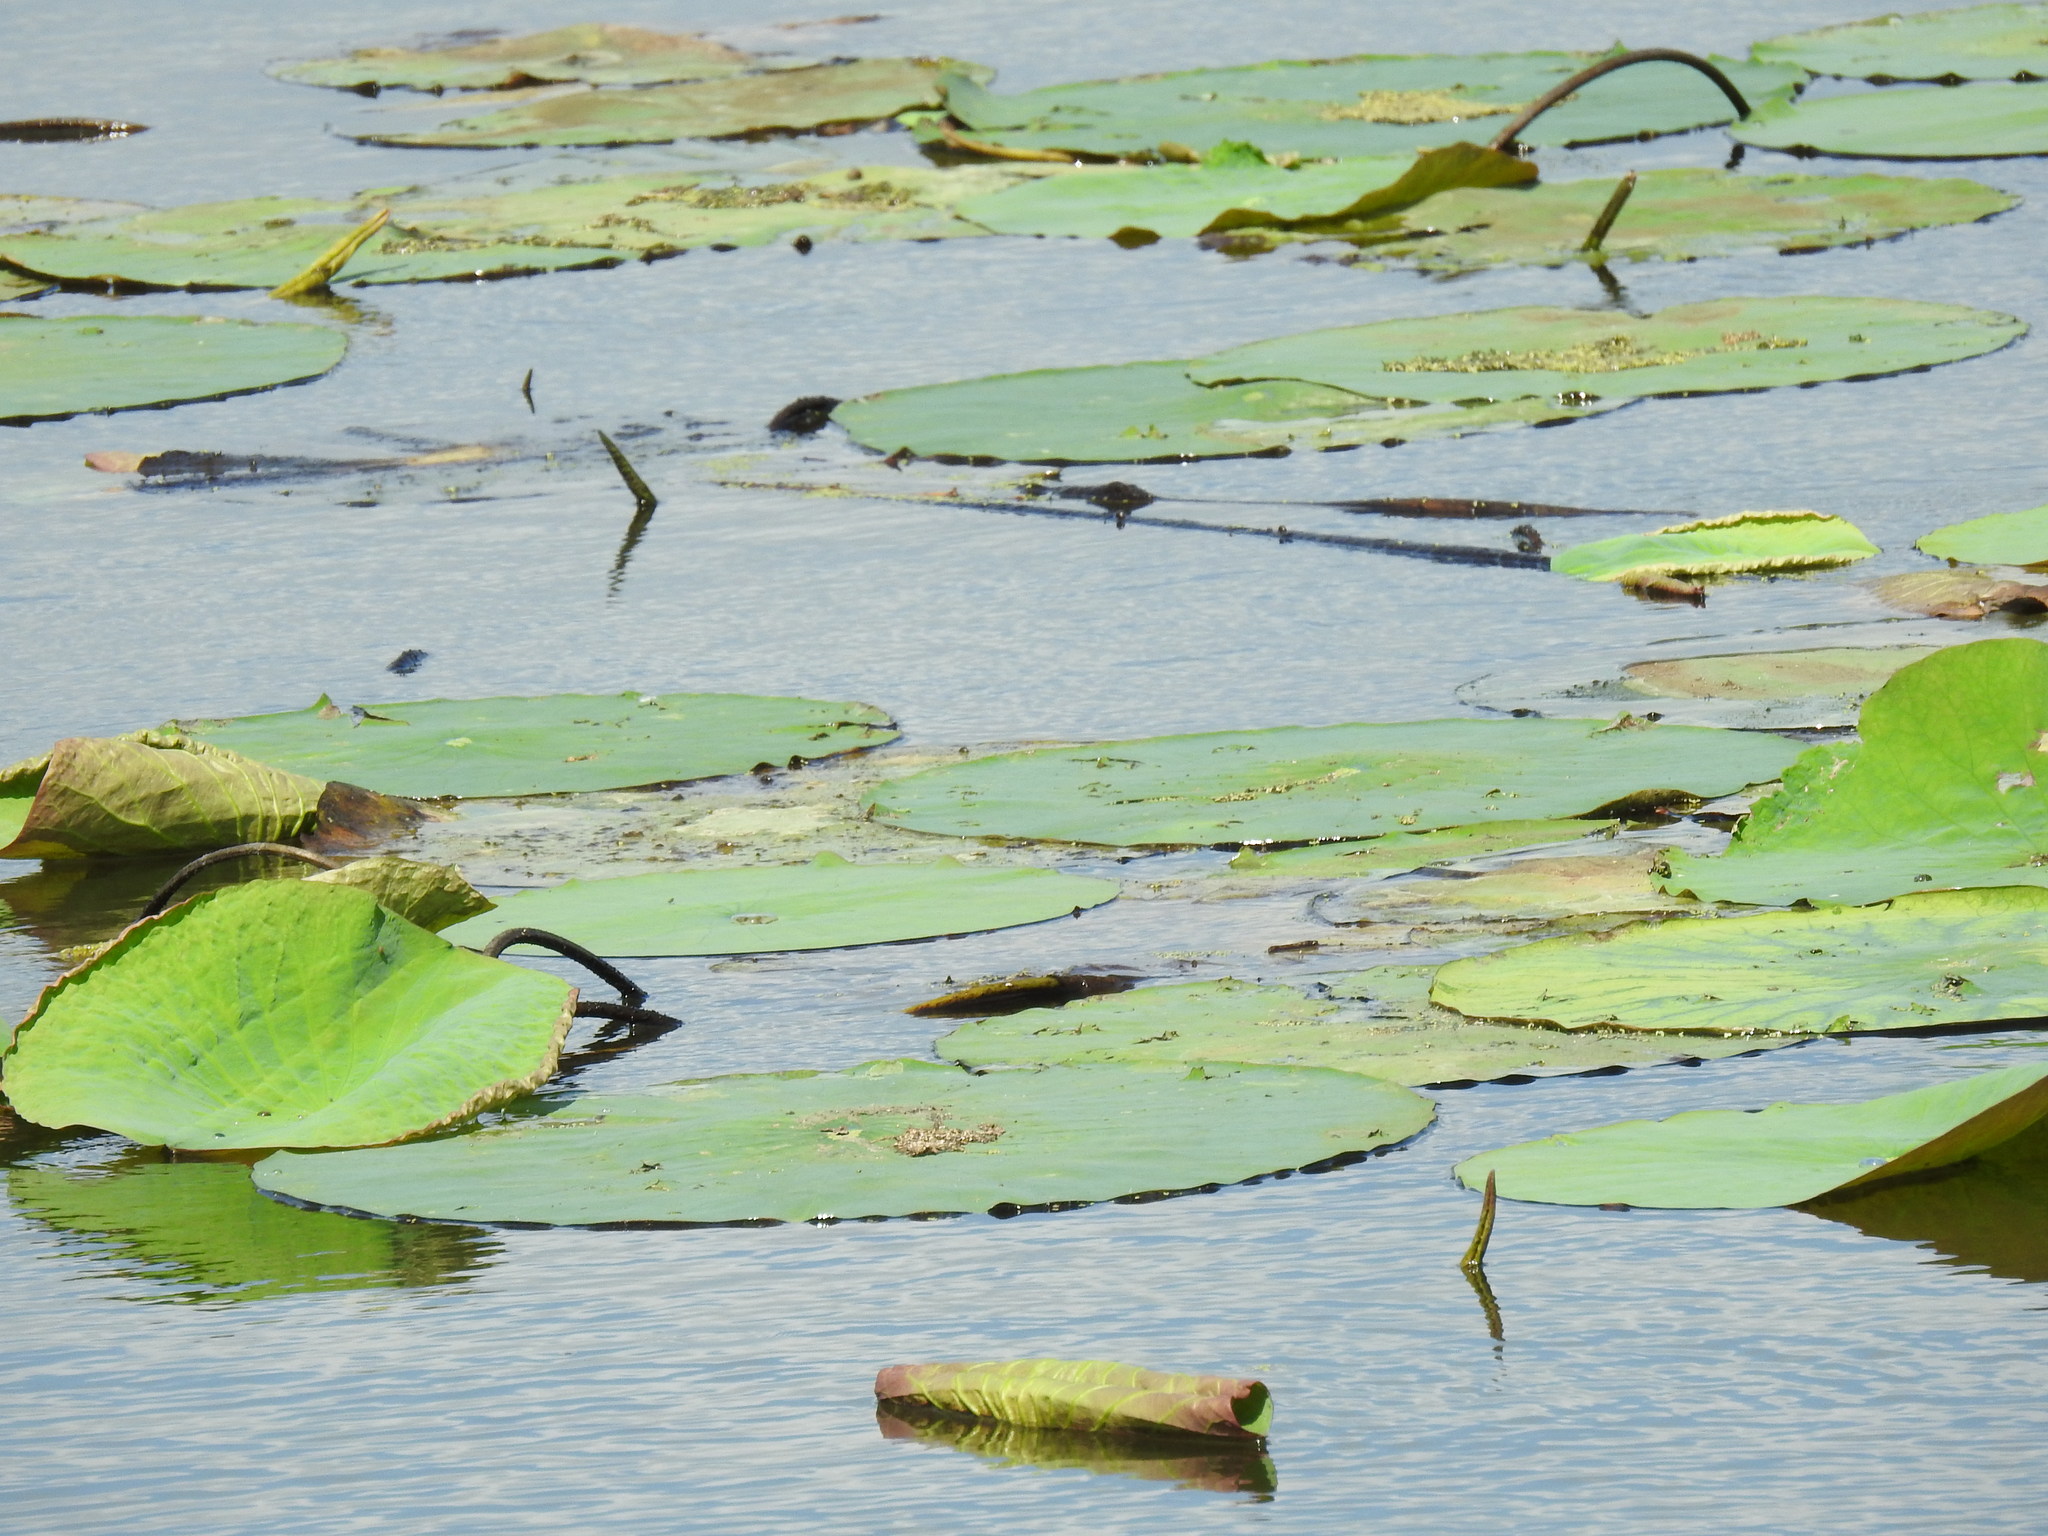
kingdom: Plantae
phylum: Tracheophyta
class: Magnoliopsida
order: Proteales
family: Nelumbonaceae
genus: Nelumbo
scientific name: Nelumbo lutea
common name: American lotus
